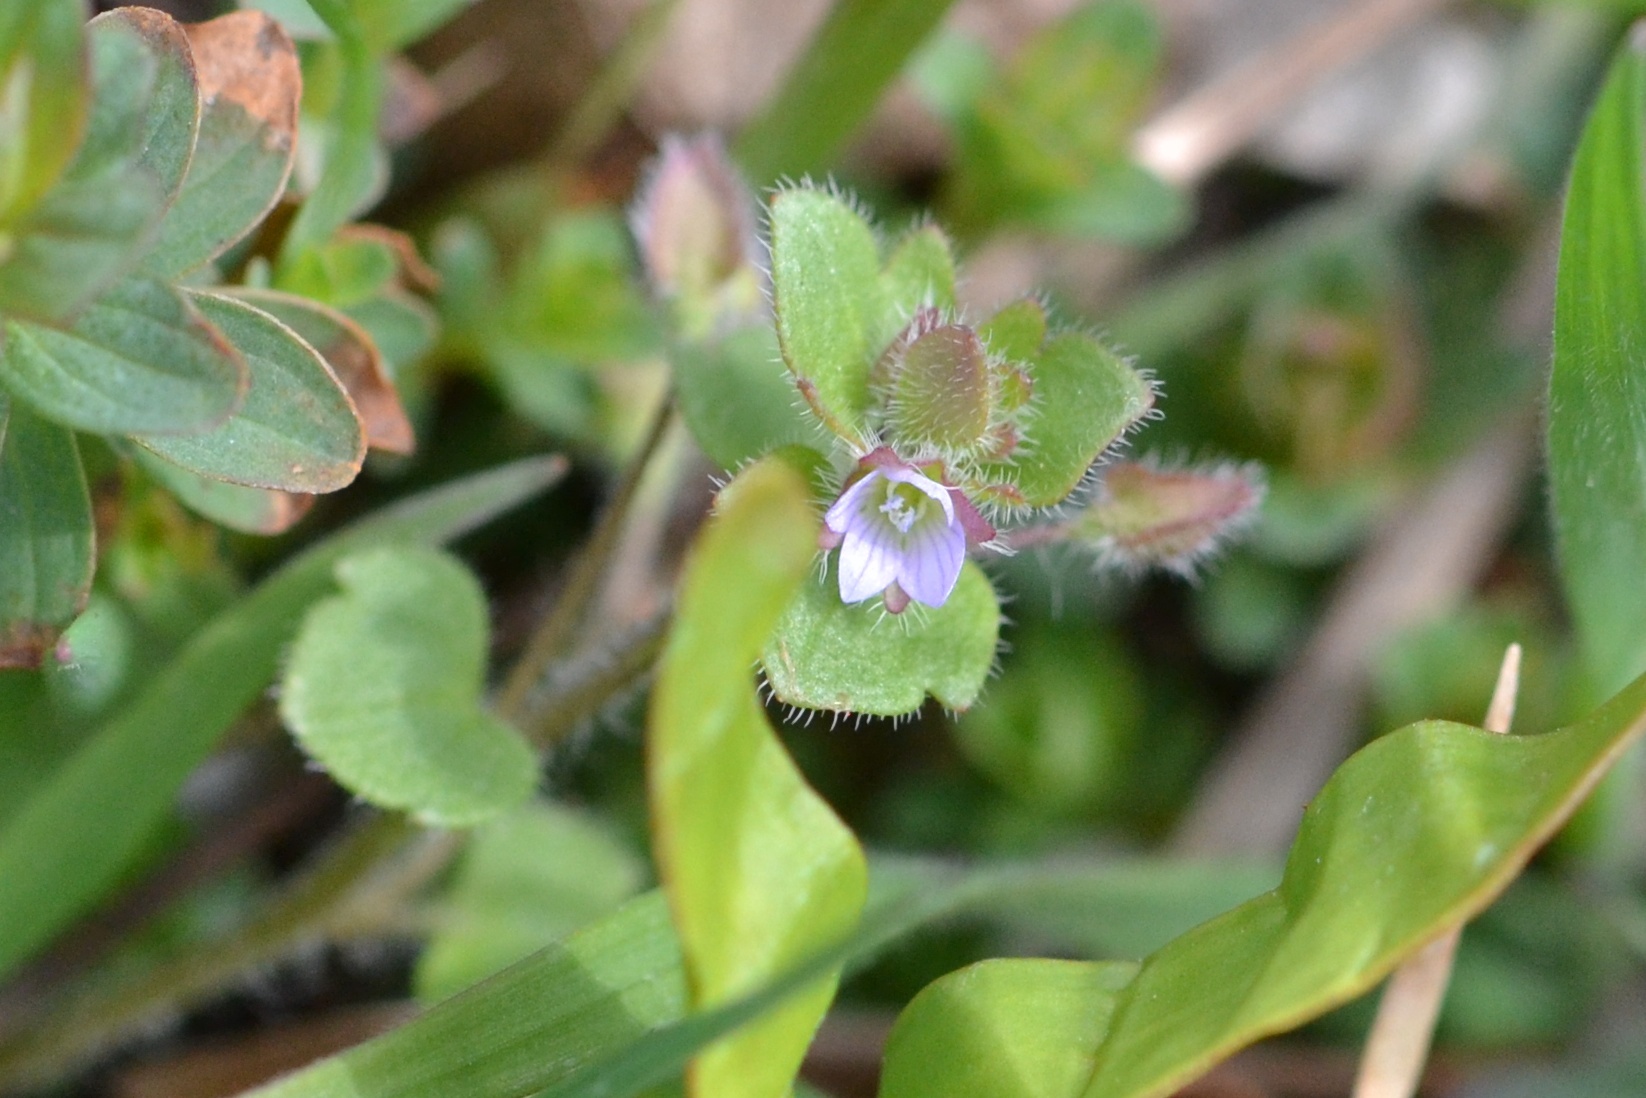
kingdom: Plantae
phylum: Tracheophyta
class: Magnoliopsida
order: Lamiales
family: Plantaginaceae
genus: Veronica
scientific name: Veronica sublobata
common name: False ivy-leaved speedwell
